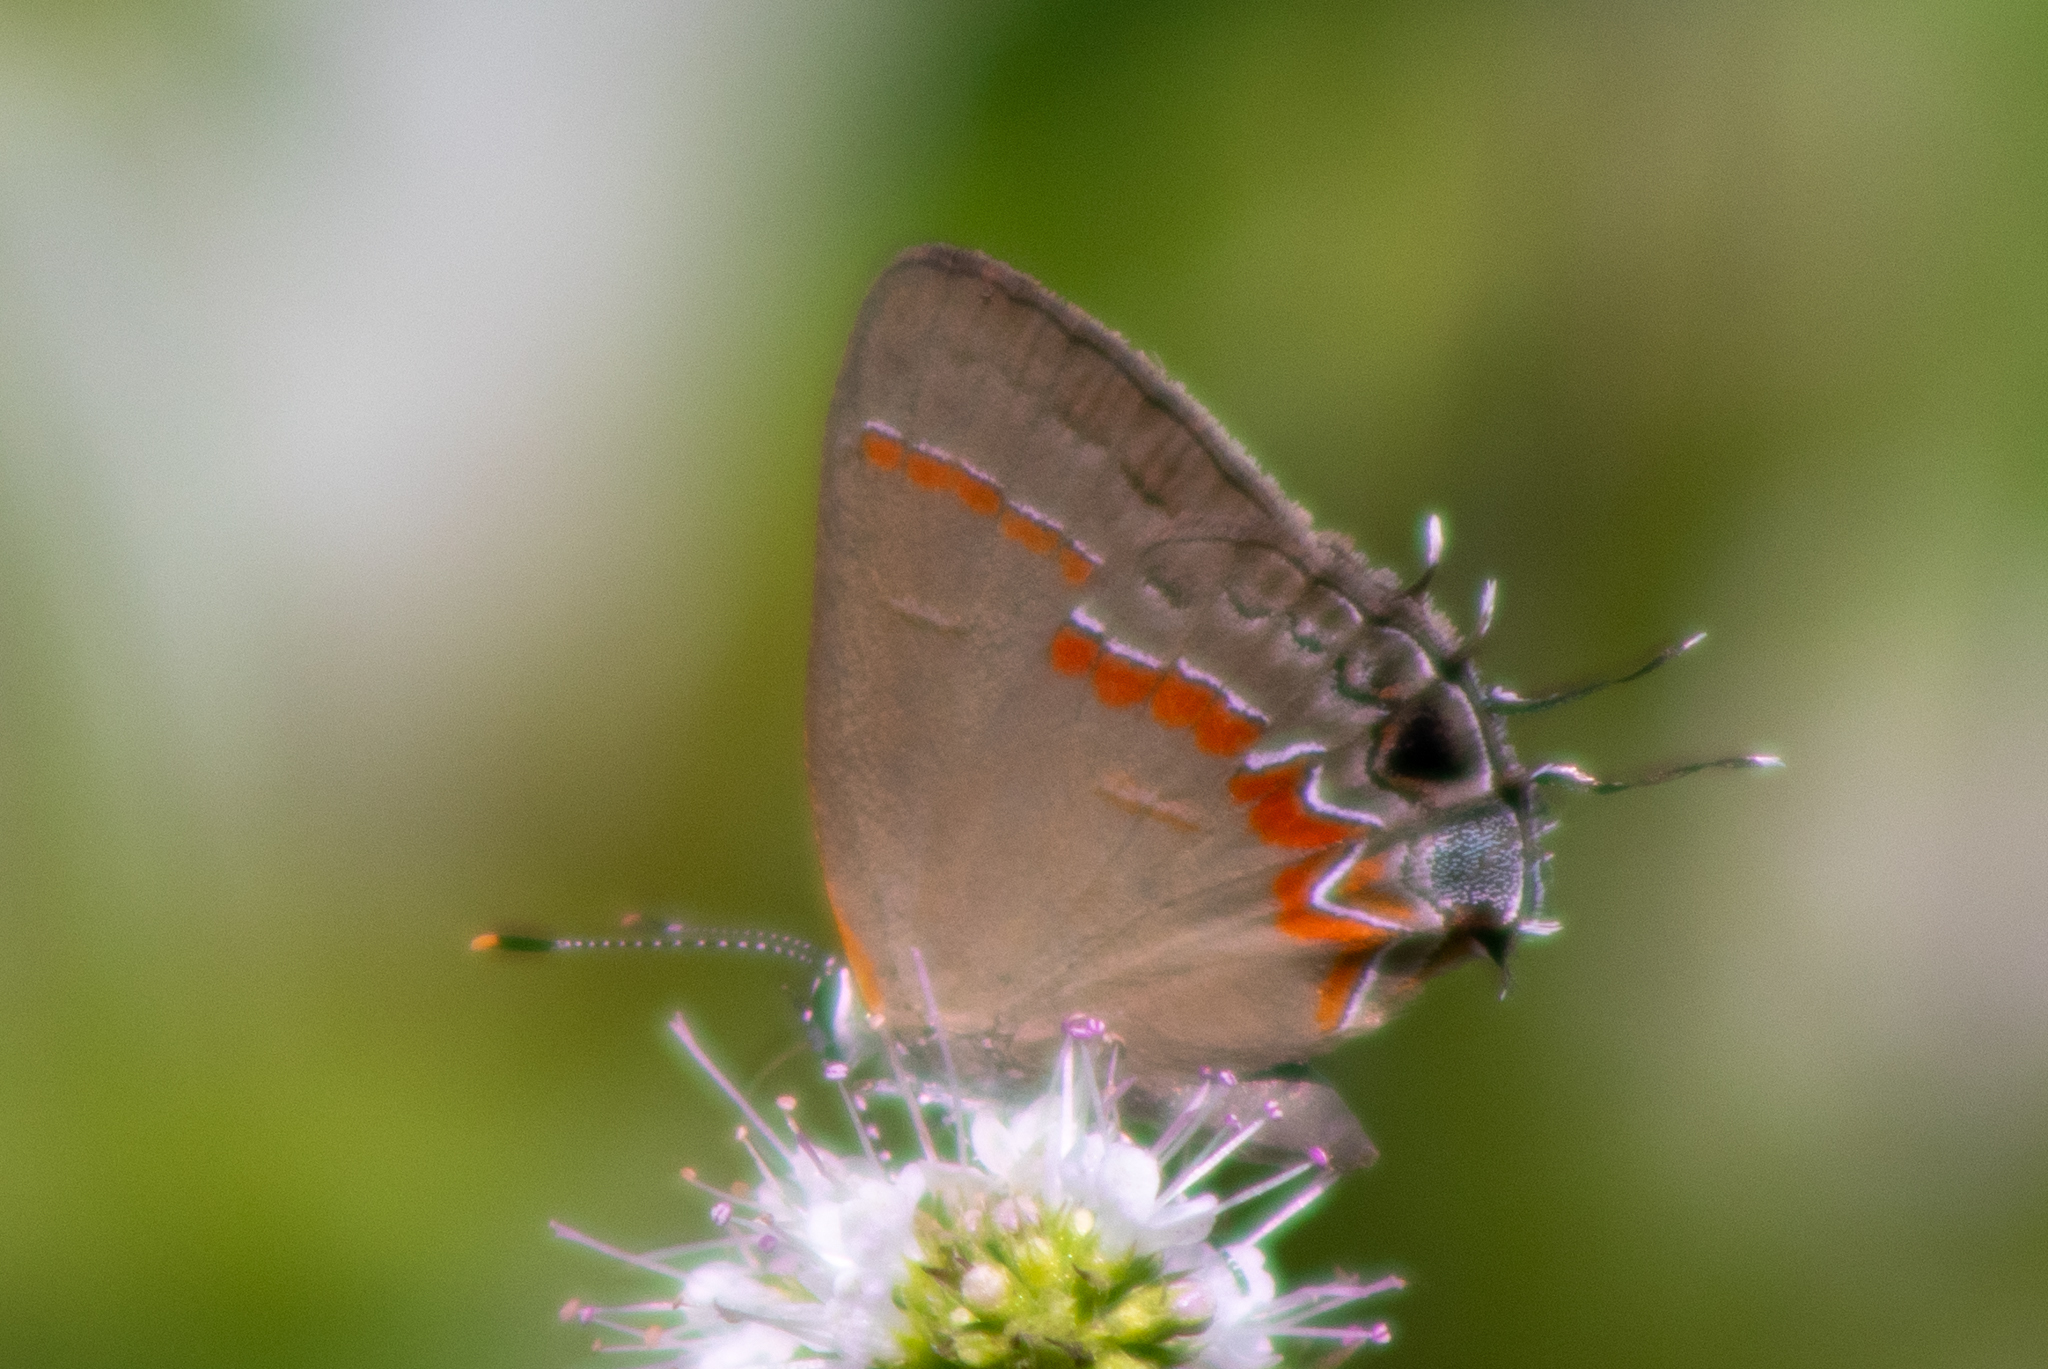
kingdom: Animalia
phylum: Arthropoda
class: Insecta
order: Lepidoptera
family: Lycaenidae
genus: Calycopis
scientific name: Calycopis cecrops
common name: Red-banded hairstreak
